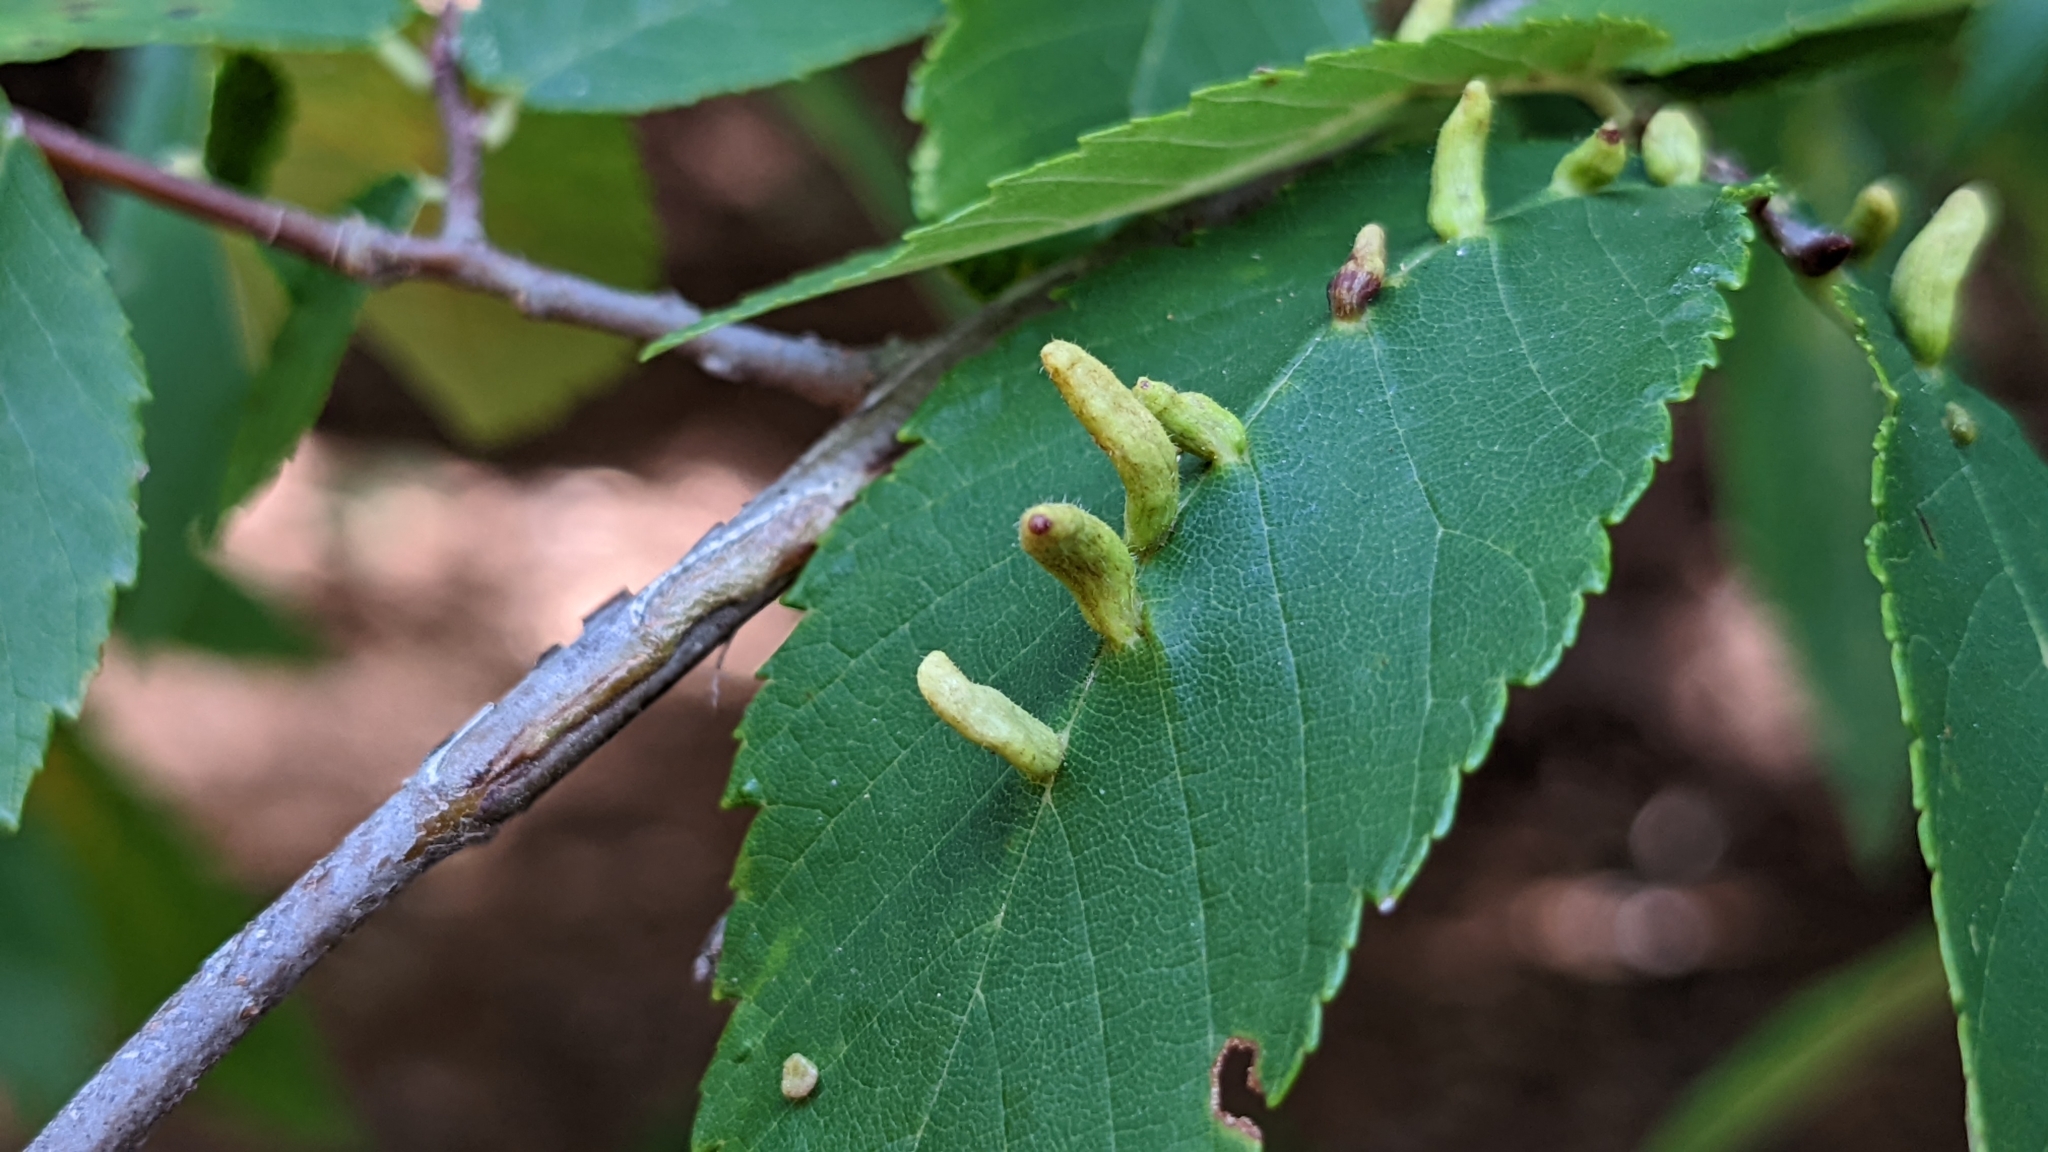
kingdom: Animalia
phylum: Arthropoda
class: Arachnida
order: Trombidiformes
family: Eriophyidae
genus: Aceria
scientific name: Aceria
